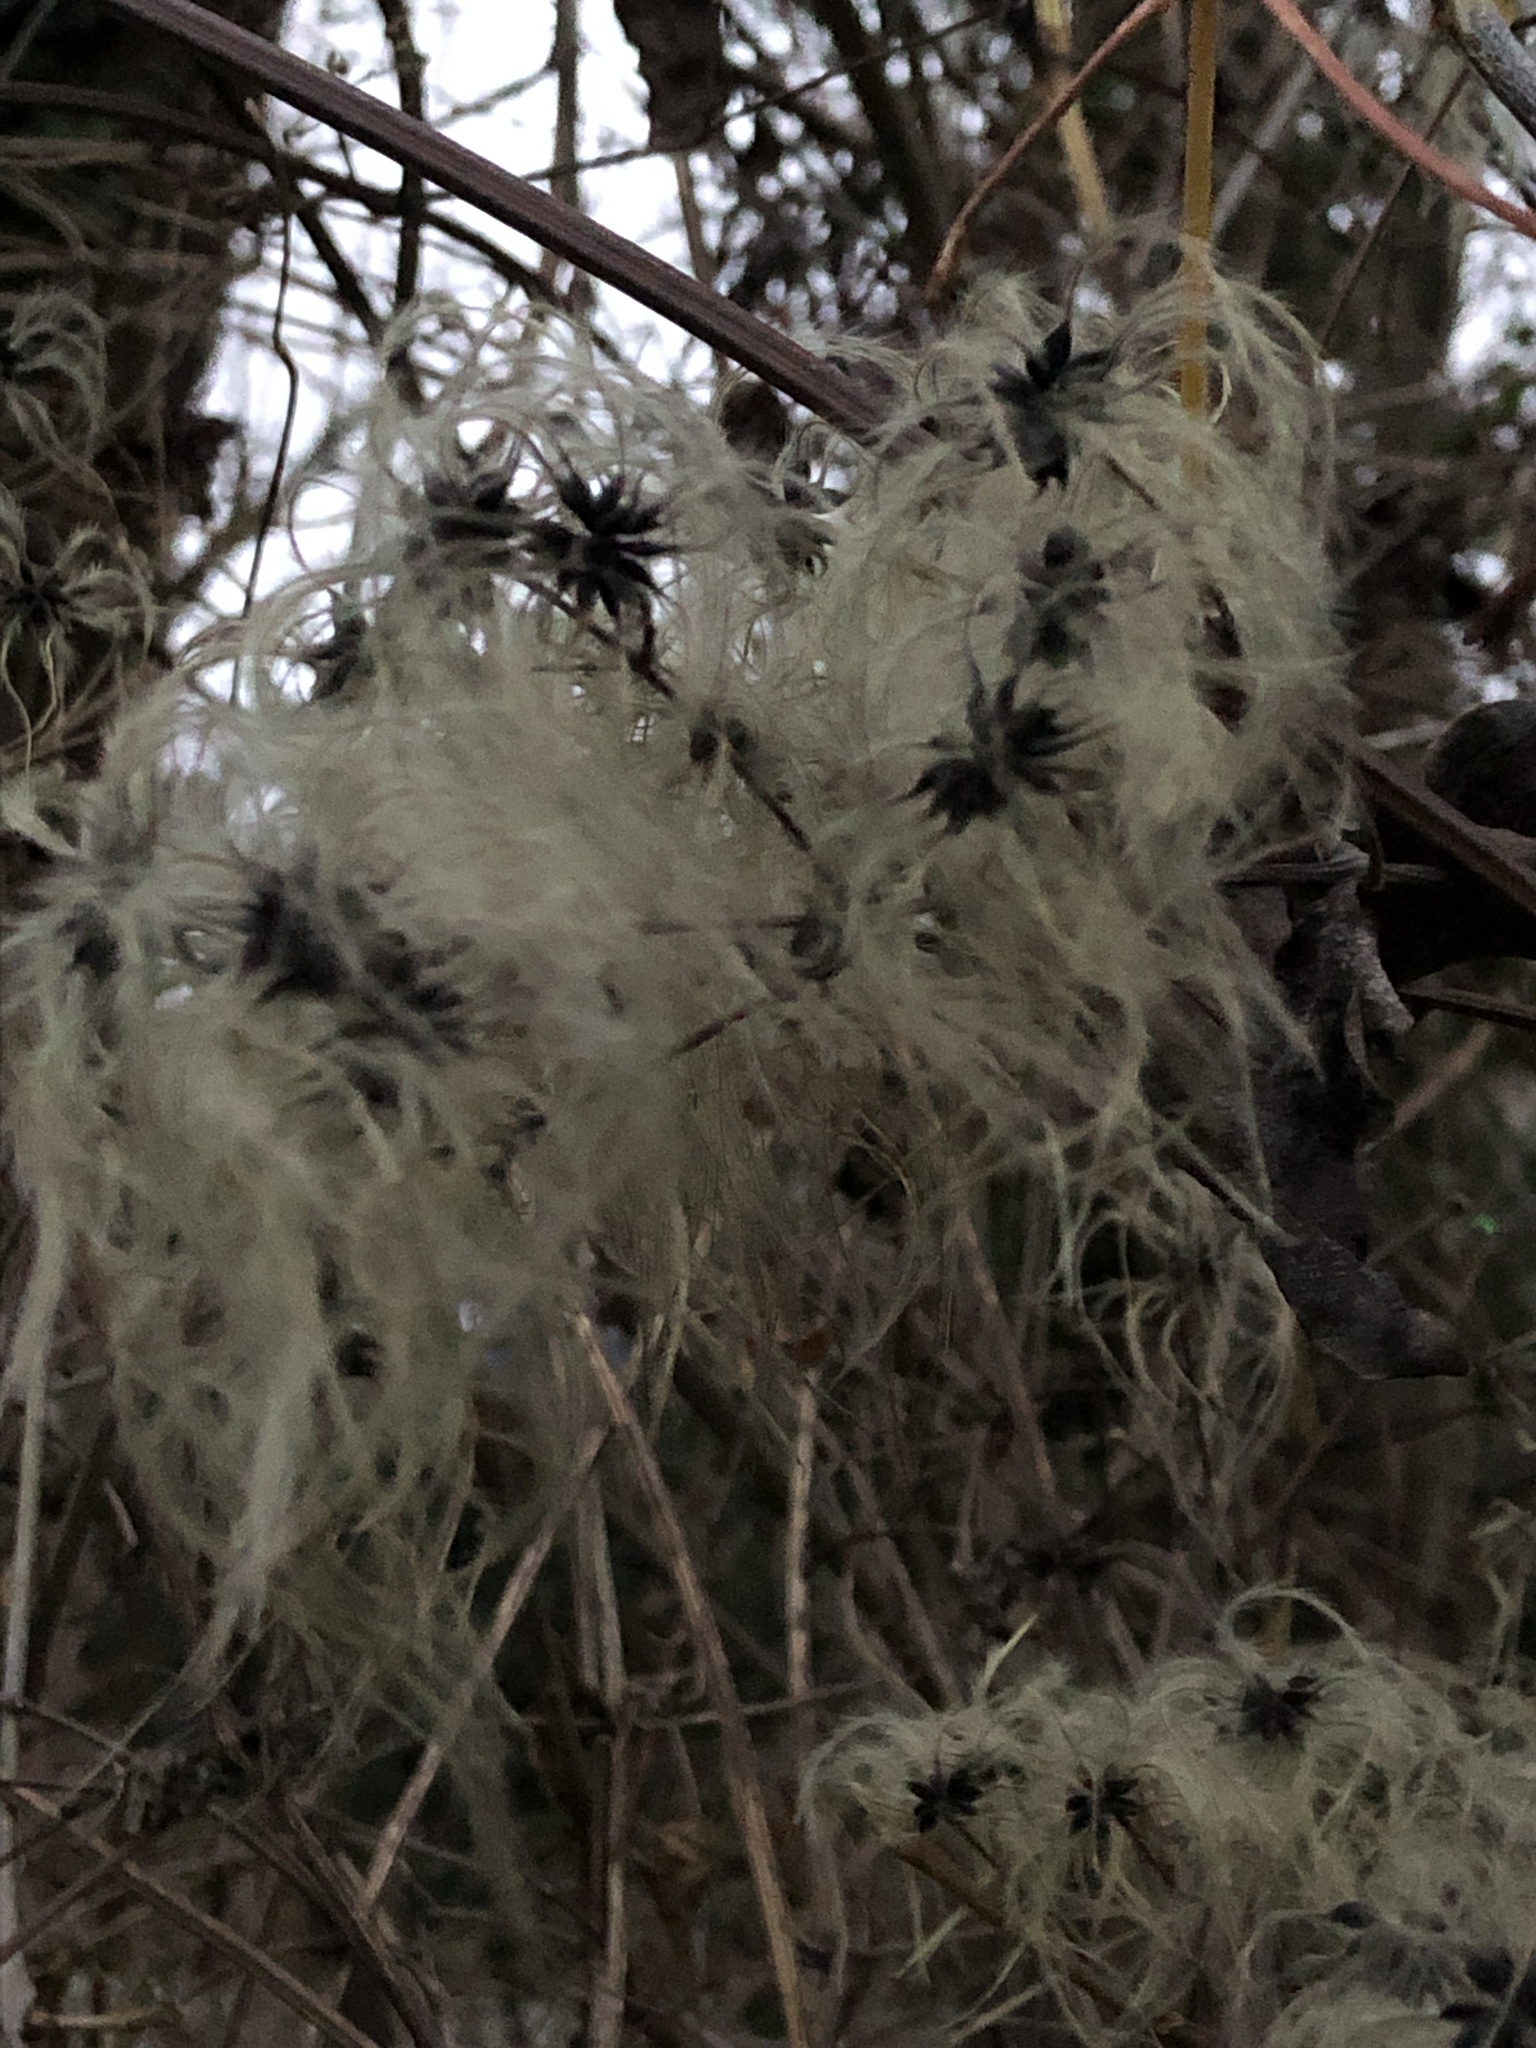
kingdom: Plantae
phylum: Tracheophyta
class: Magnoliopsida
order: Ranunculales
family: Ranunculaceae
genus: Clematis
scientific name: Clematis vitalba
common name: Evergreen clematis
